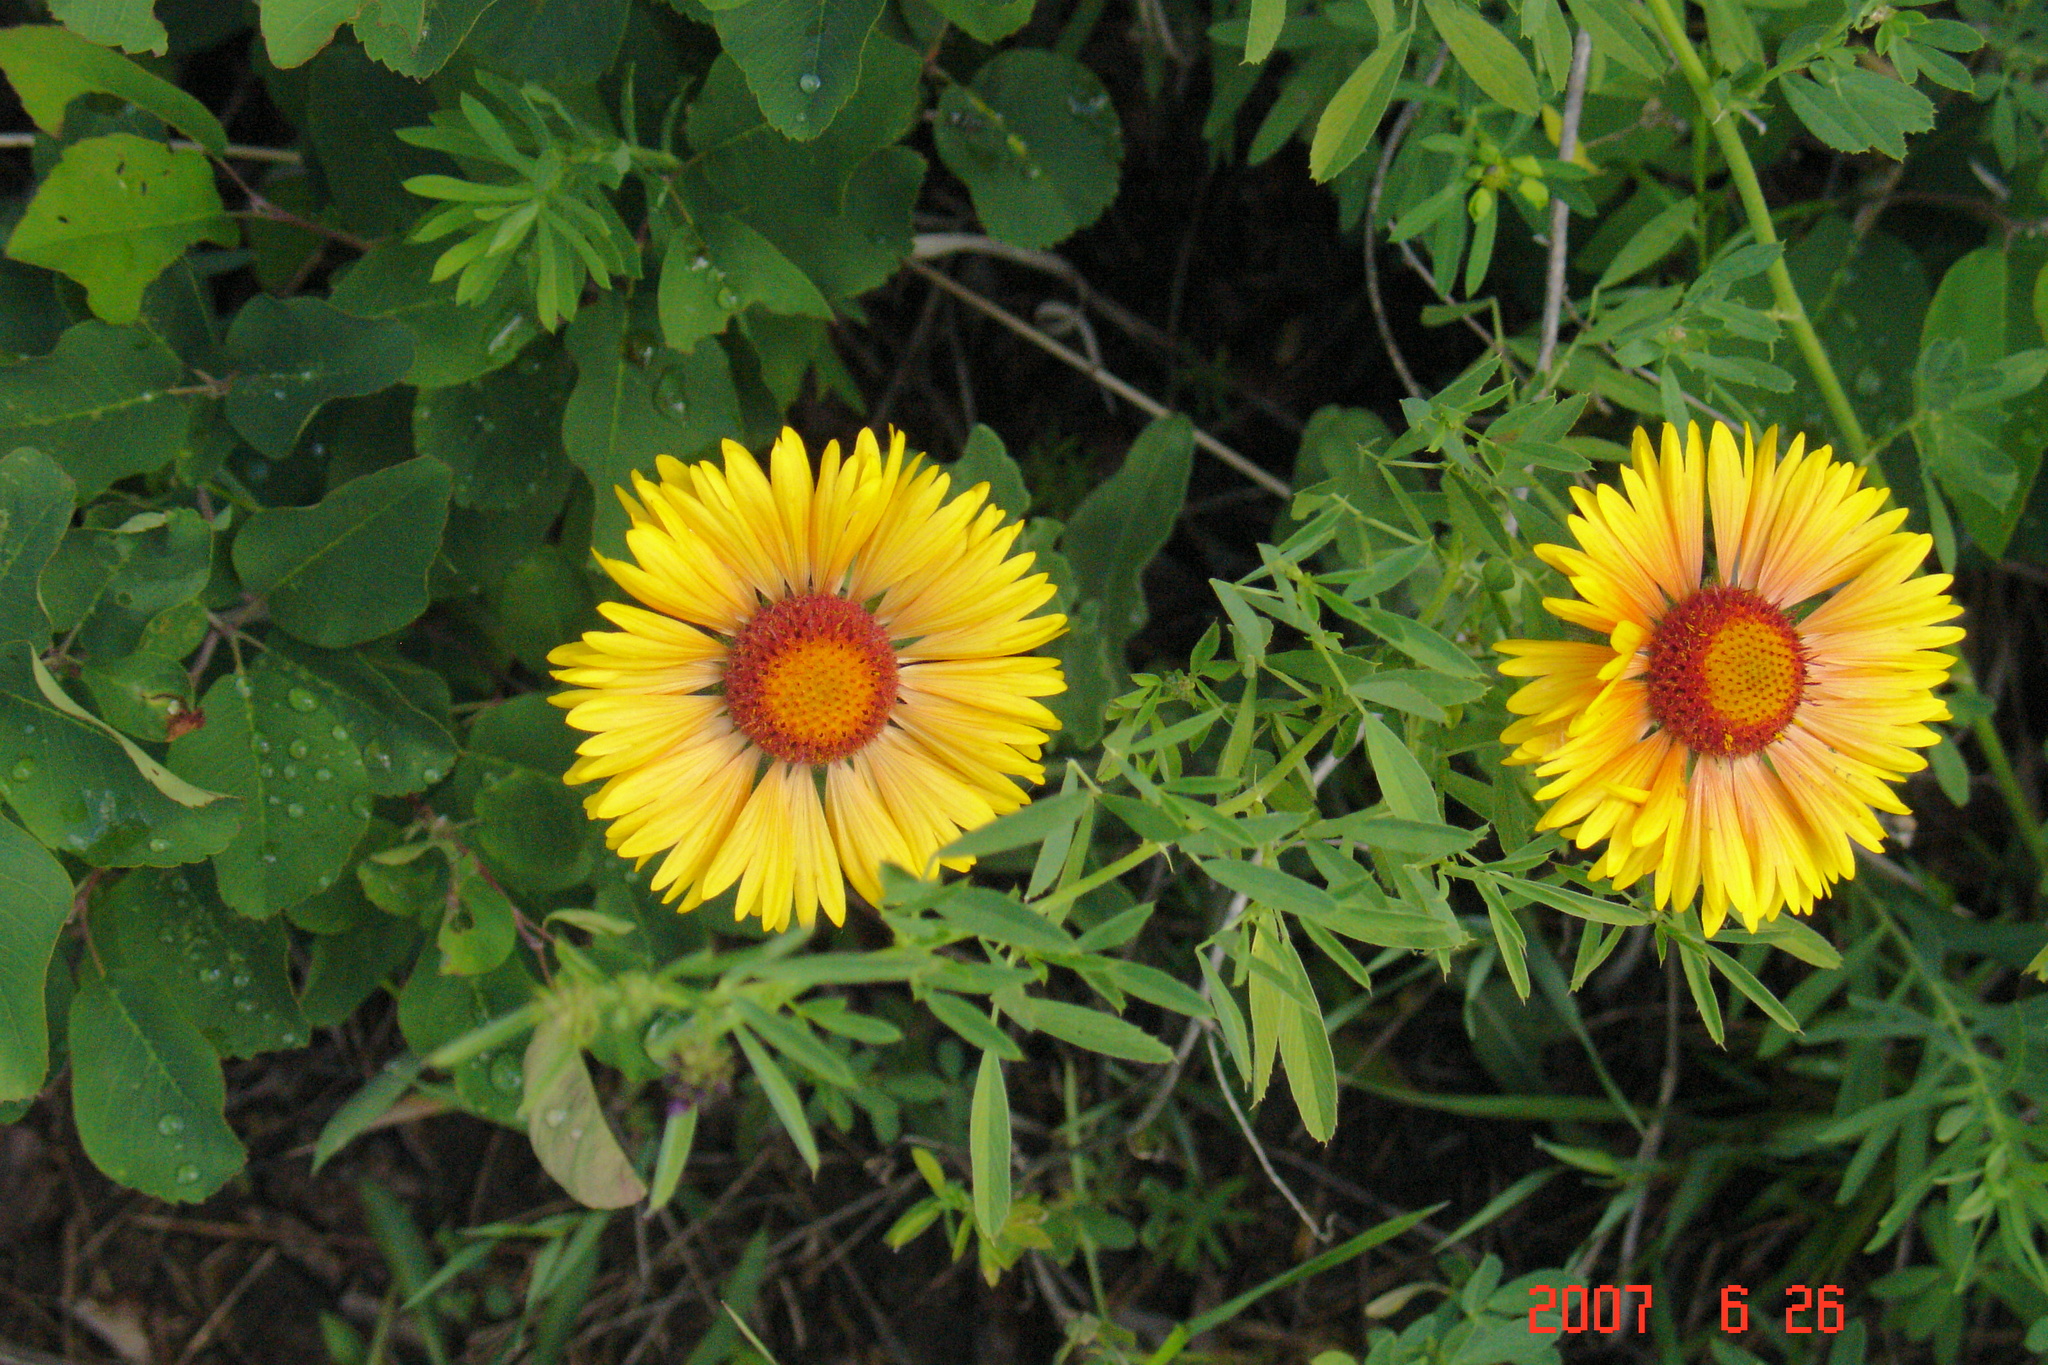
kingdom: Plantae
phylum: Tracheophyta
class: Magnoliopsida
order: Asterales
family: Asteraceae
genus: Gaillardia
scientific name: Gaillardia aristata
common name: Blanket-flower
